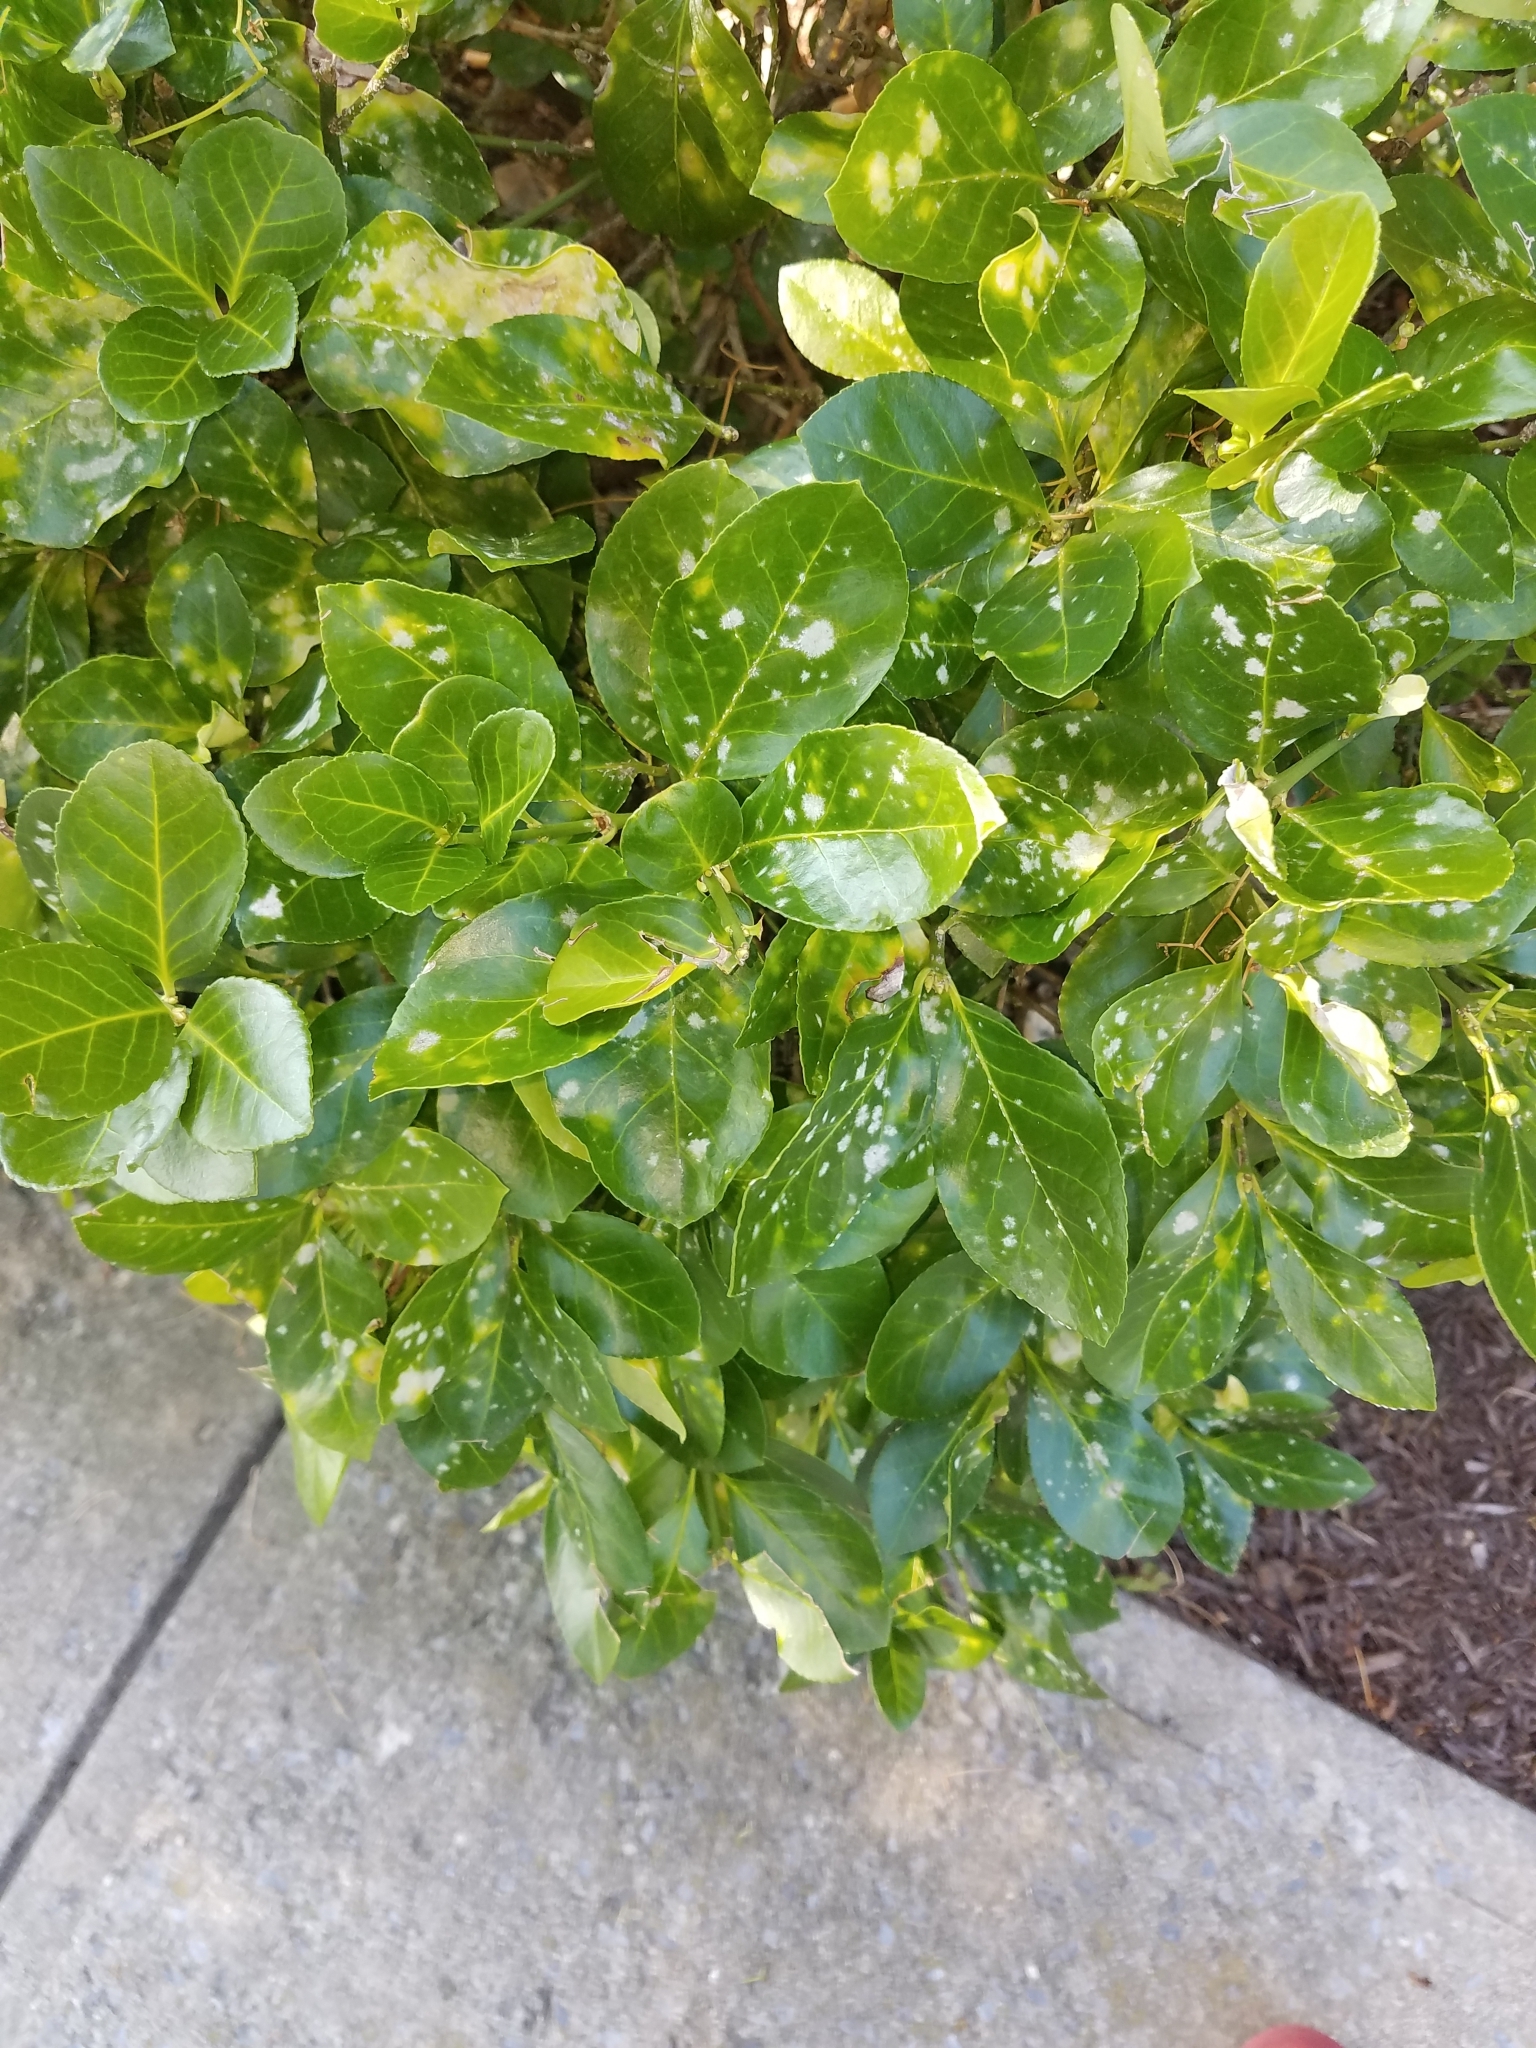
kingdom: Fungi
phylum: Ascomycota
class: Leotiomycetes
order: Helotiales
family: Erysiphaceae
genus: Erysiphe
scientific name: Erysiphe euonymicola
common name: Spindletree mildew
